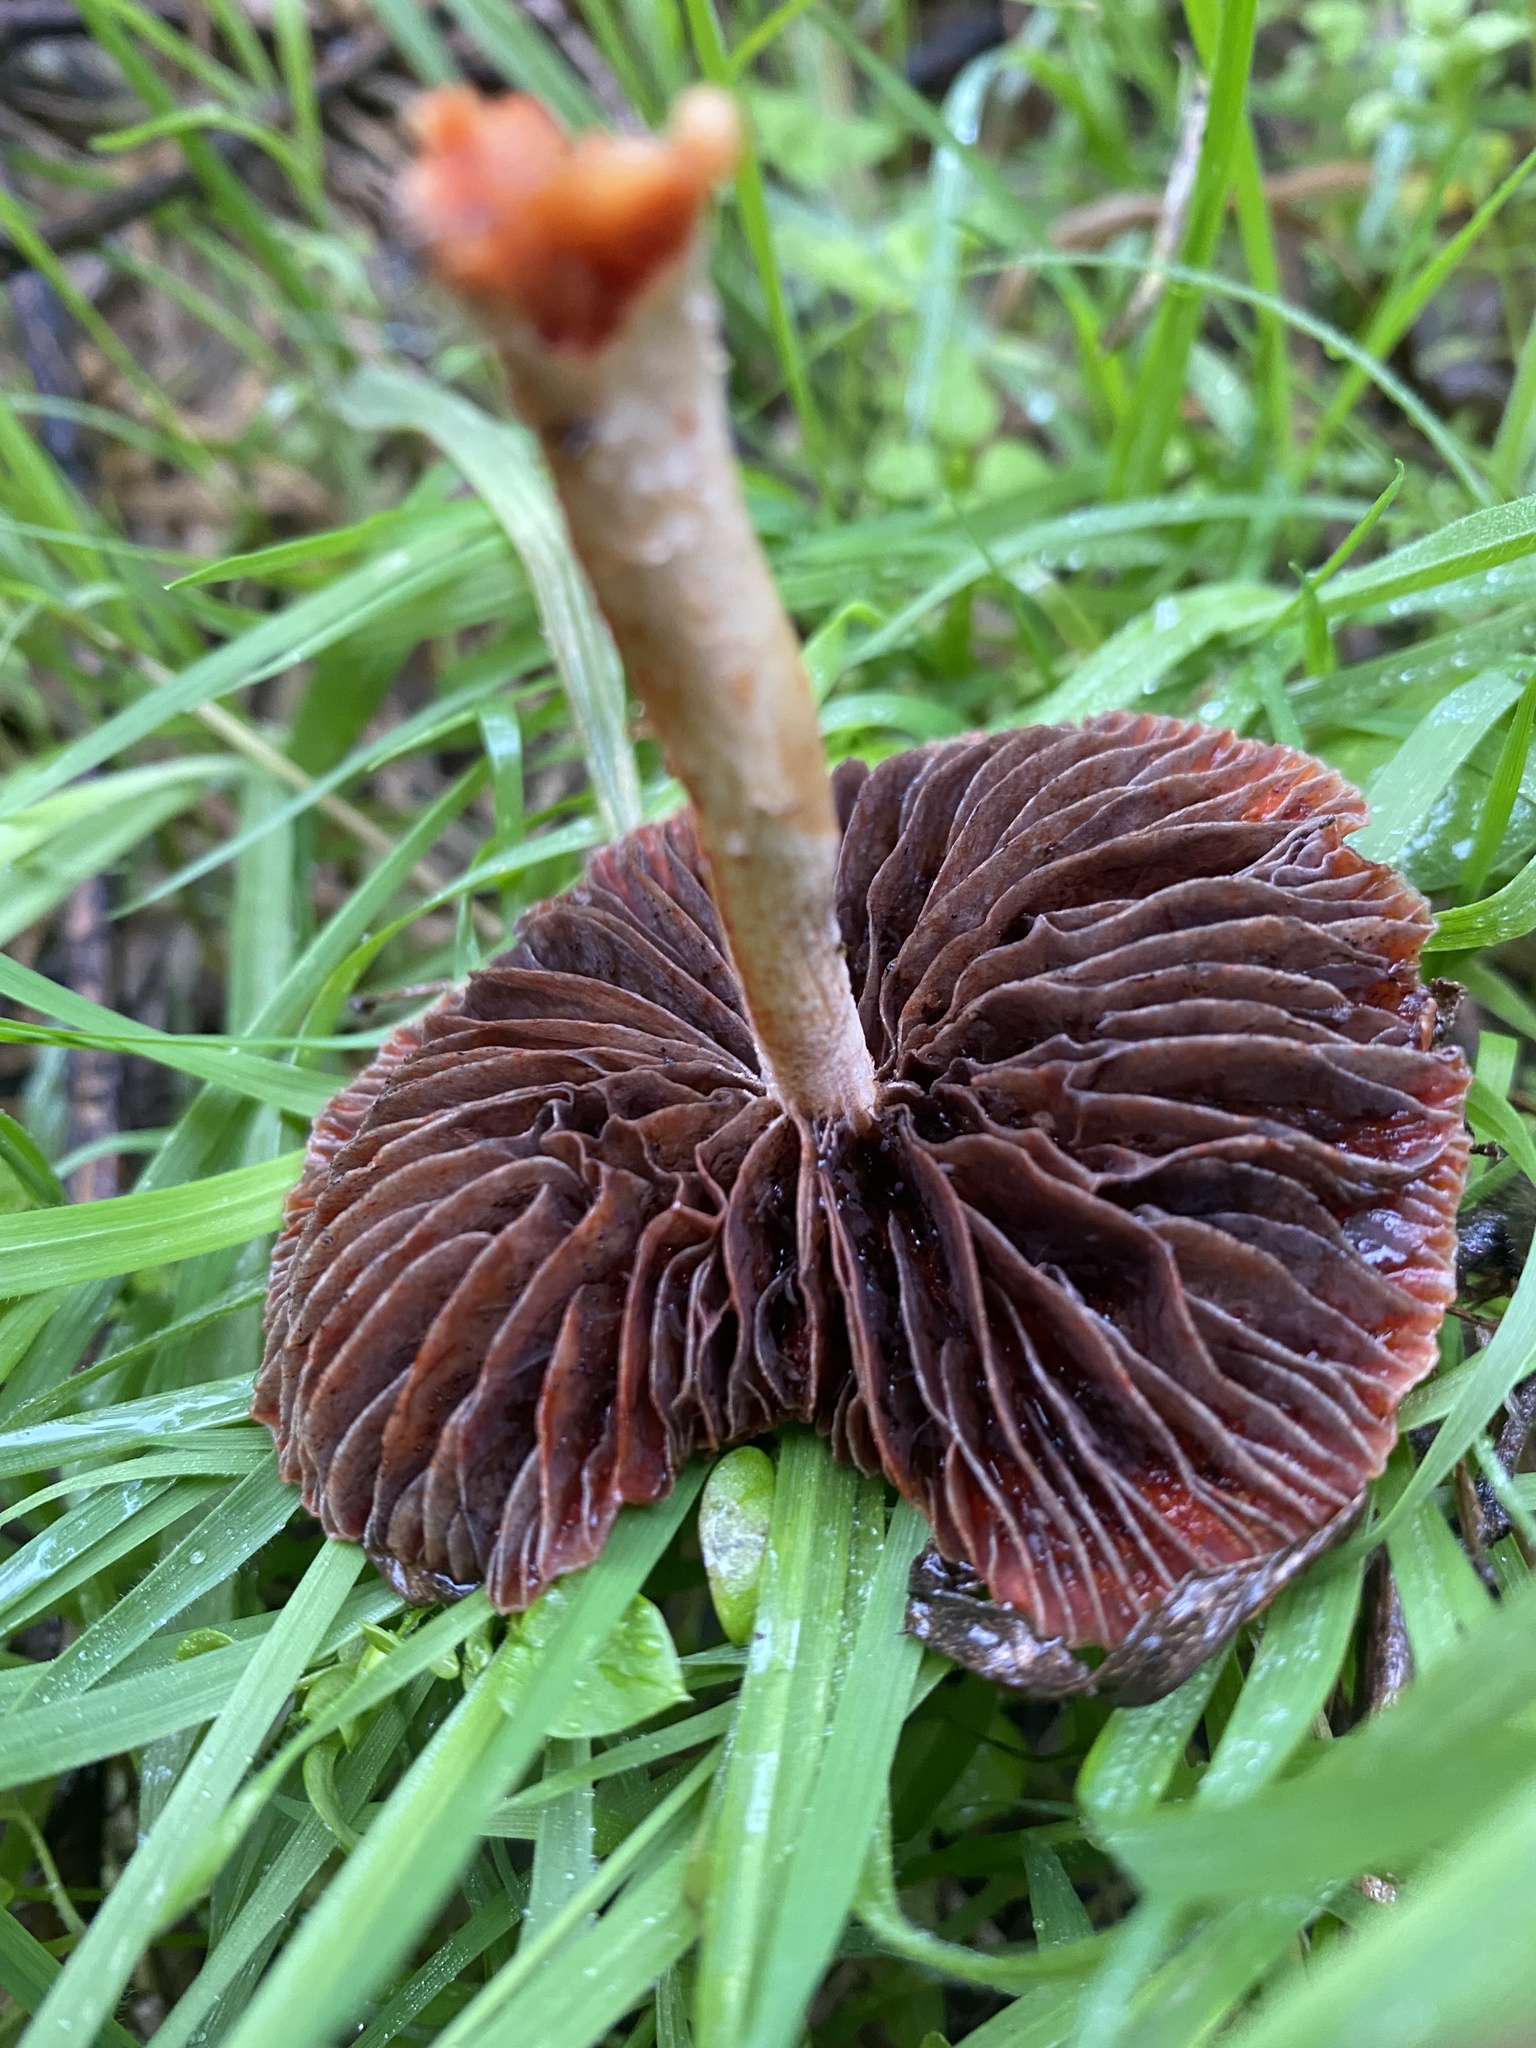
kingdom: Fungi
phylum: Basidiomycota
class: Agaricomycetes
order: Agaricales
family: Strophariaceae
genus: Leratiomyces
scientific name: Leratiomyces ceres
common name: Redlead roundhead
